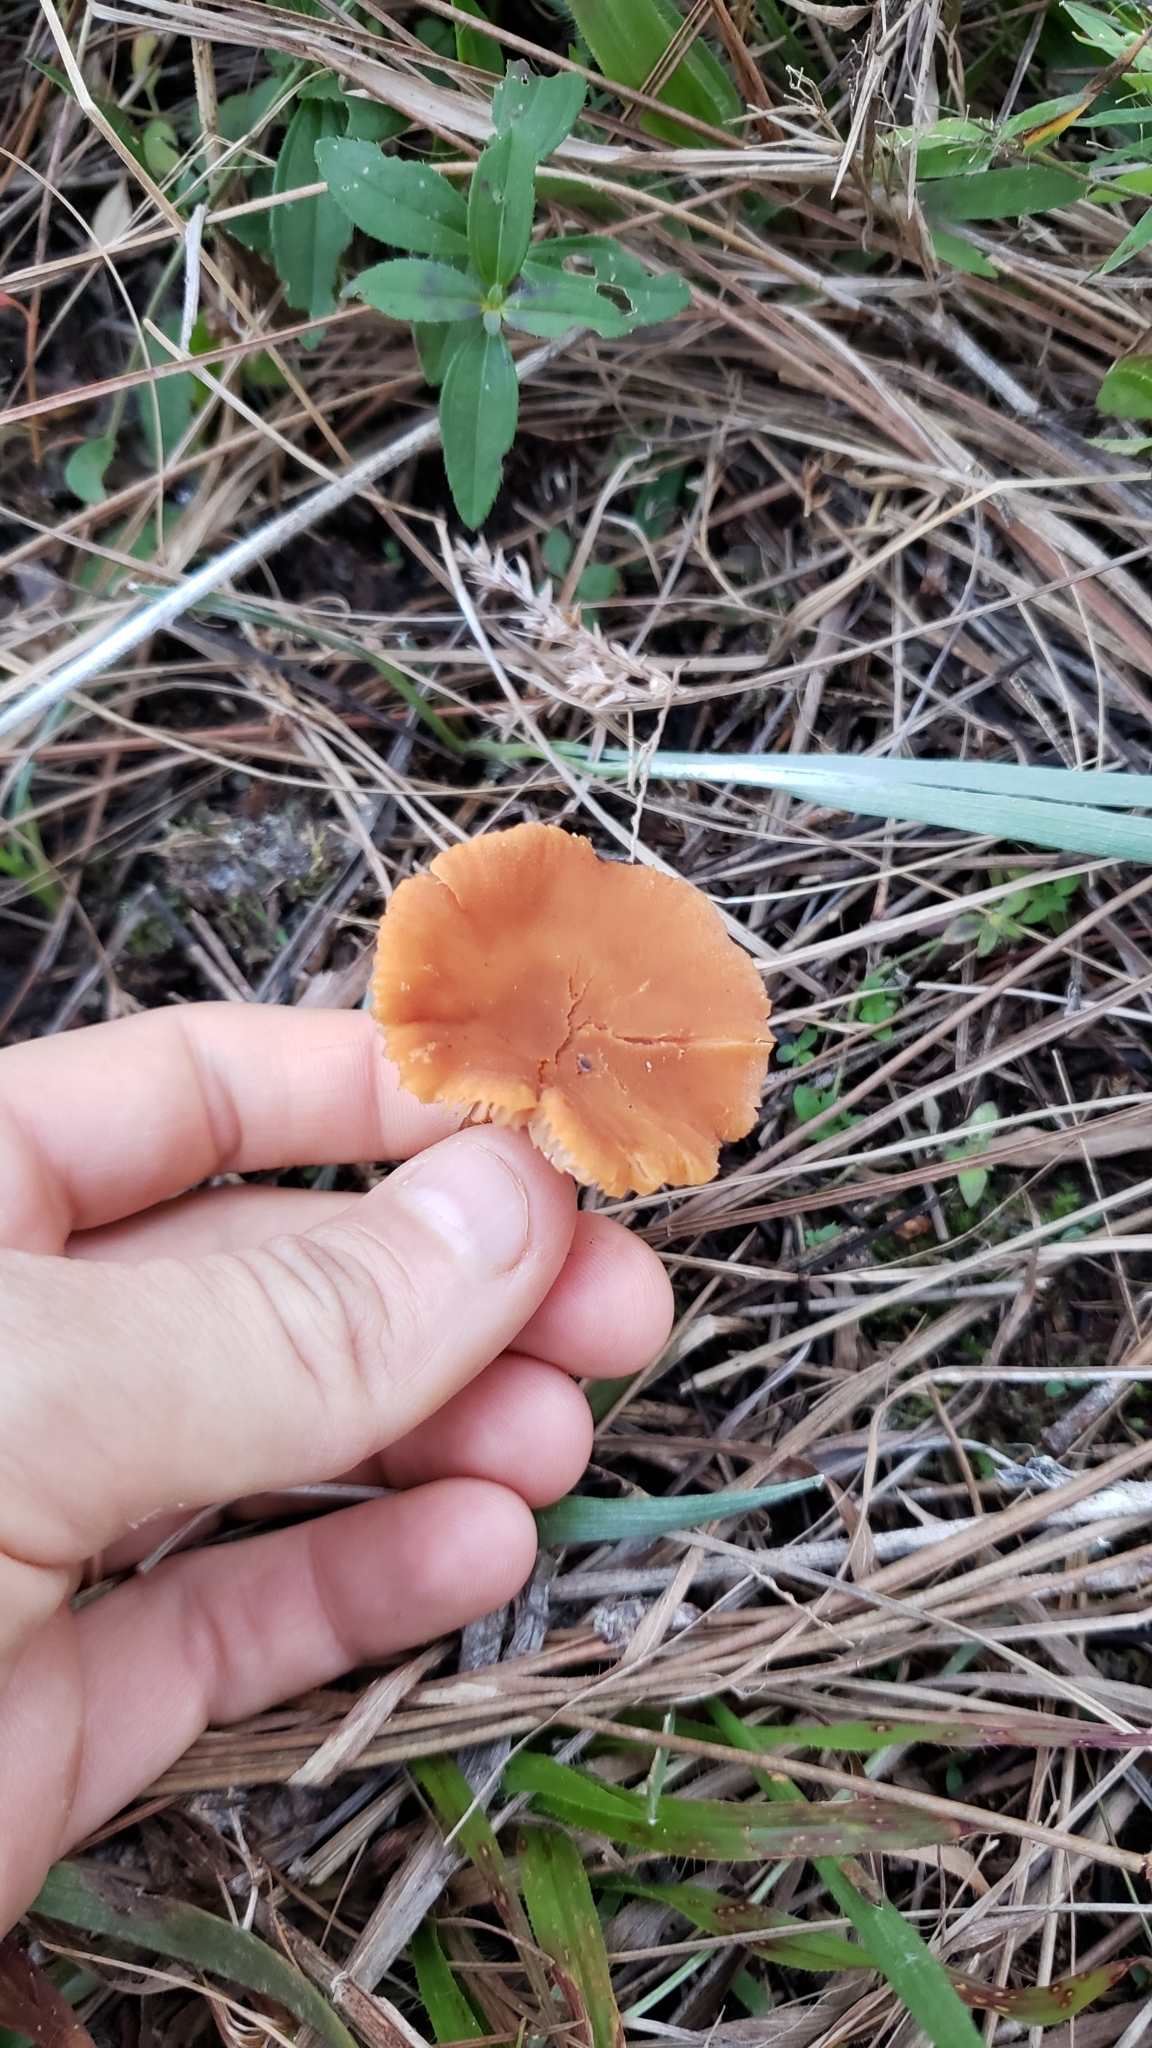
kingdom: Fungi
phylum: Basidiomycota
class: Agaricomycetes
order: Agaricales
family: Hydnangiaceae
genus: Laccaria
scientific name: Laccaria laccata
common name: Deceiver
